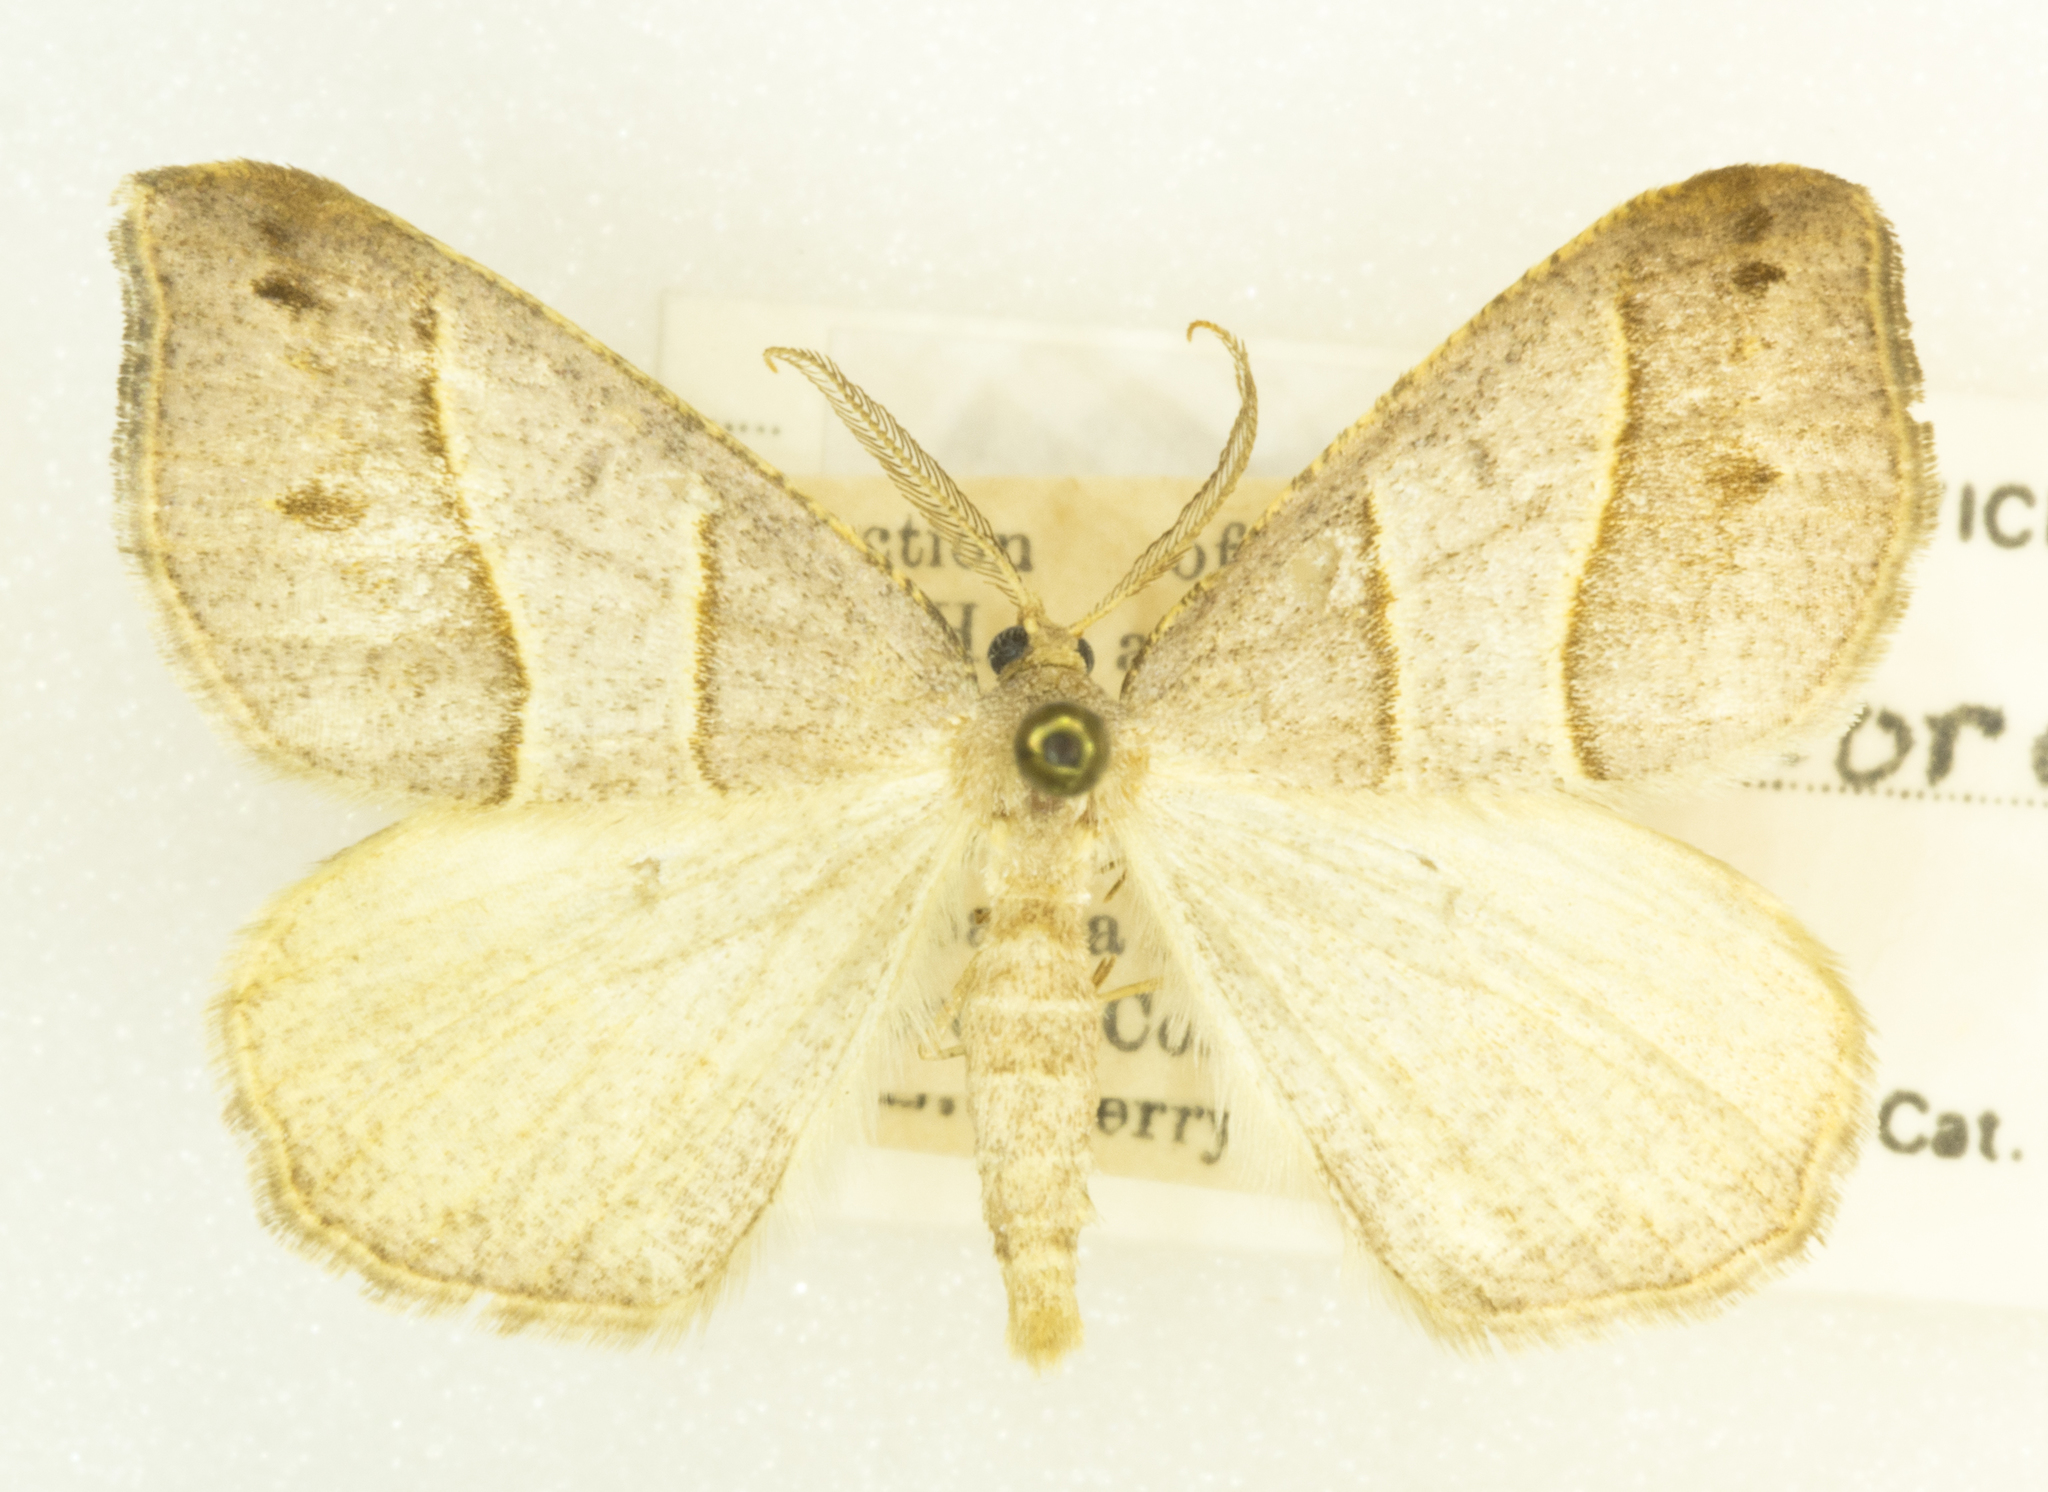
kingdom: Animalia
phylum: Arthropoda
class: Insecta
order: Lepidoptera
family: Geometridae
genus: Macaria
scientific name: Macaria lorquinaria
